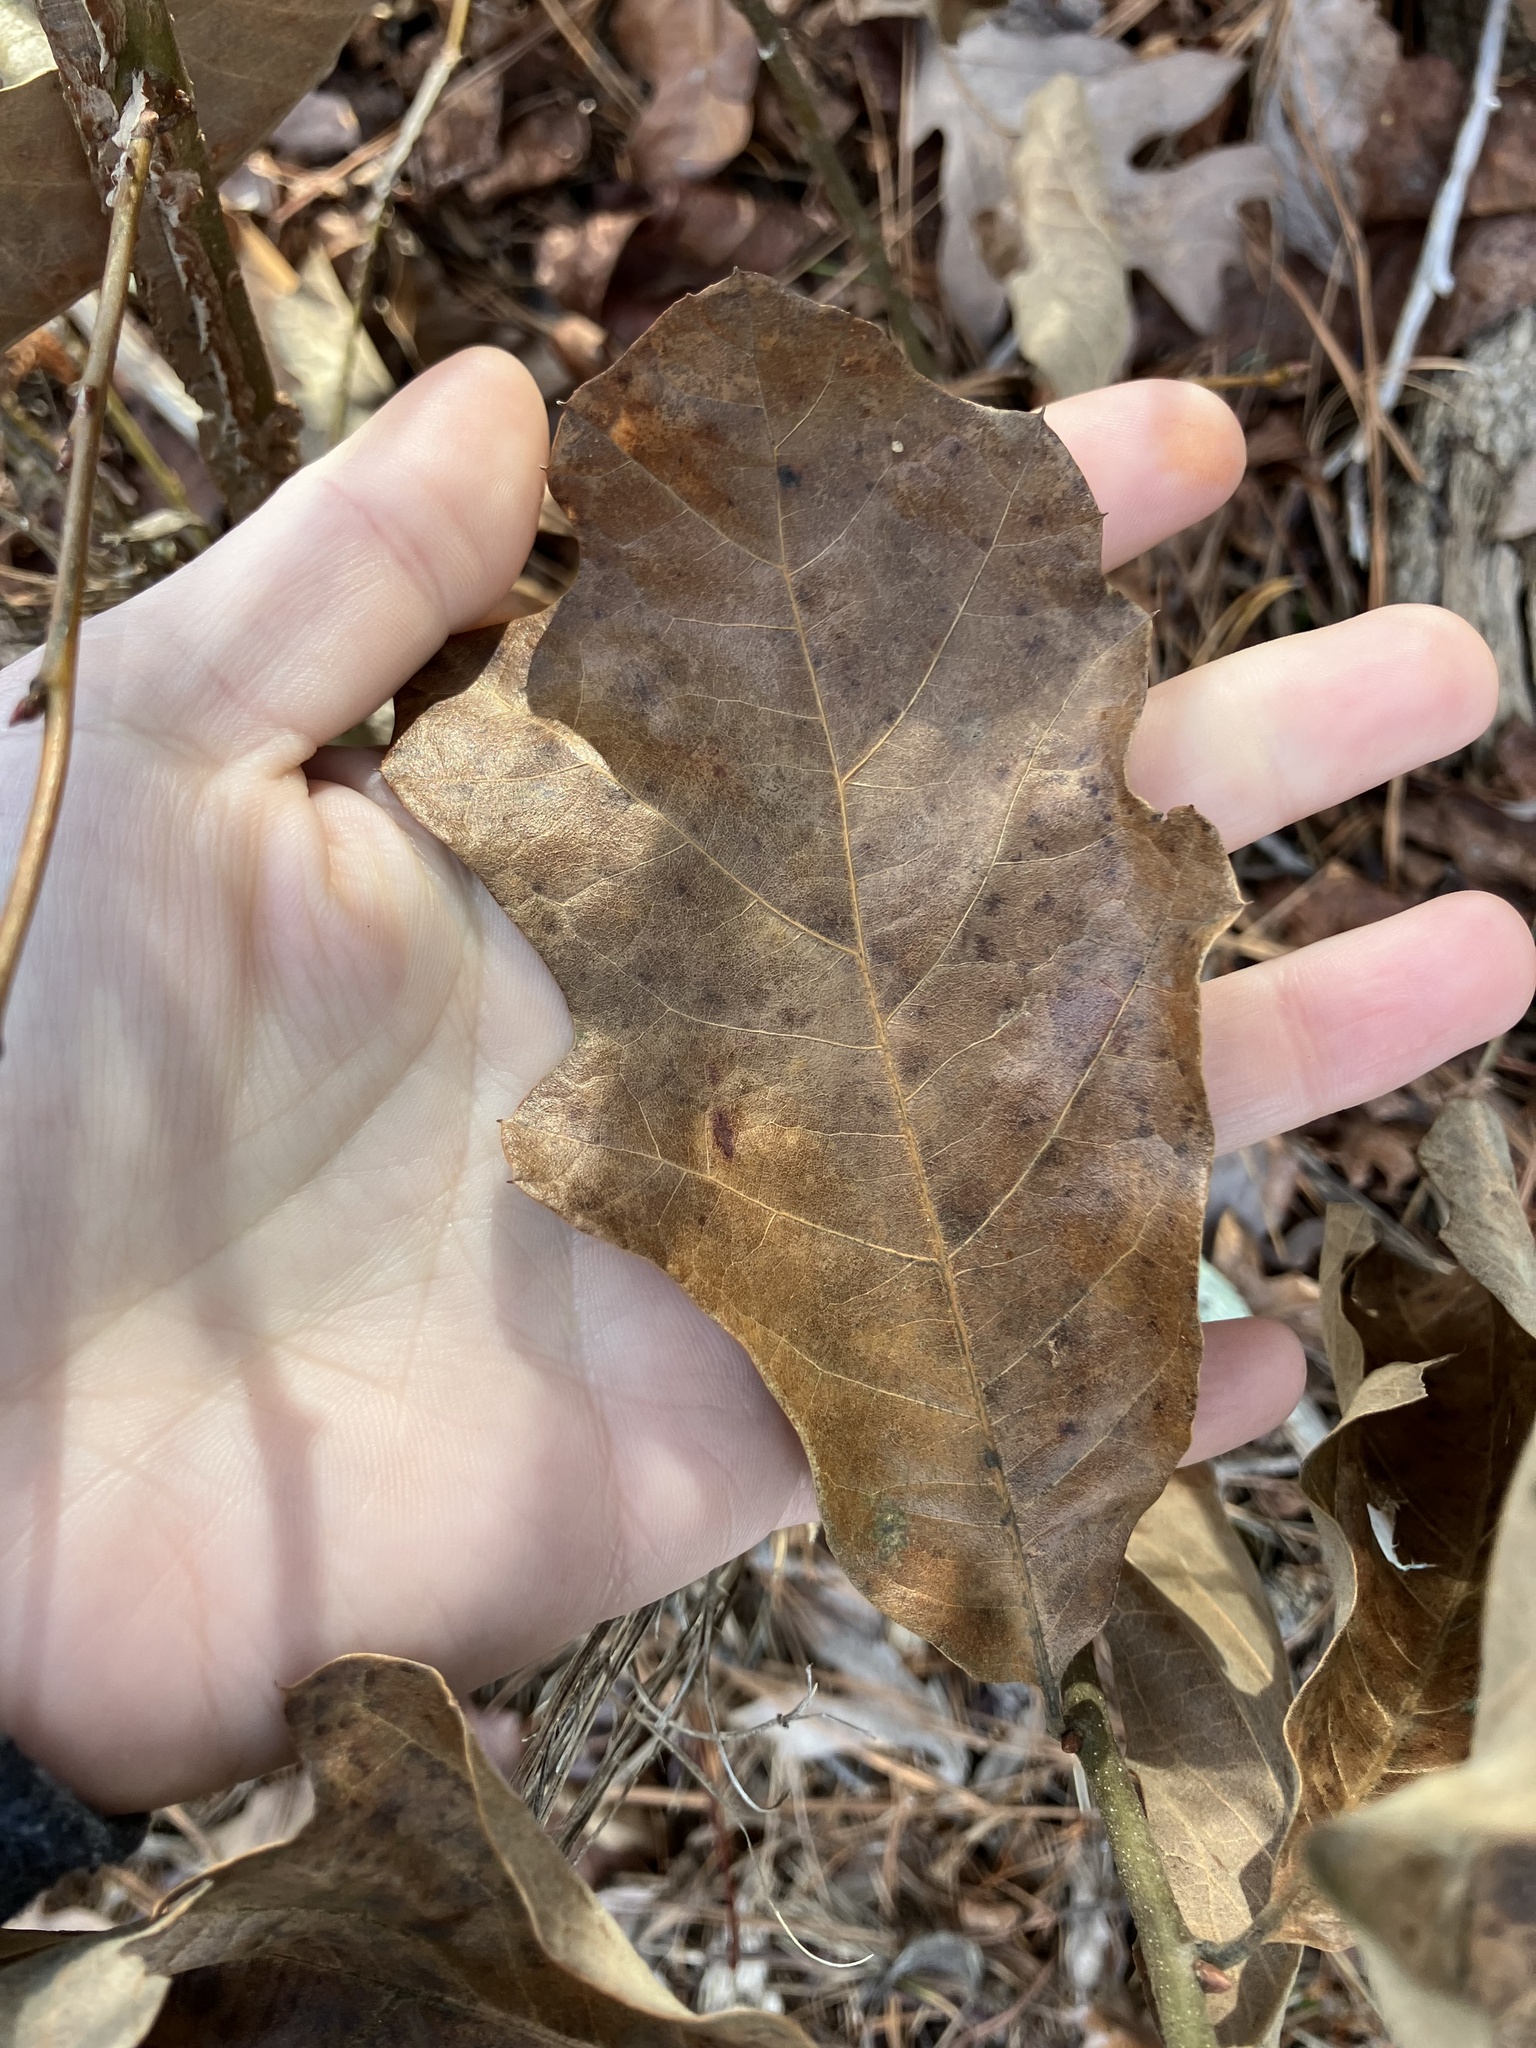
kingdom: Plantae
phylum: Tracheophyta
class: Magnoliopsida
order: Fagales
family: Fagaceae
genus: Quercus
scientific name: Quercus velutina
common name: Black oak
